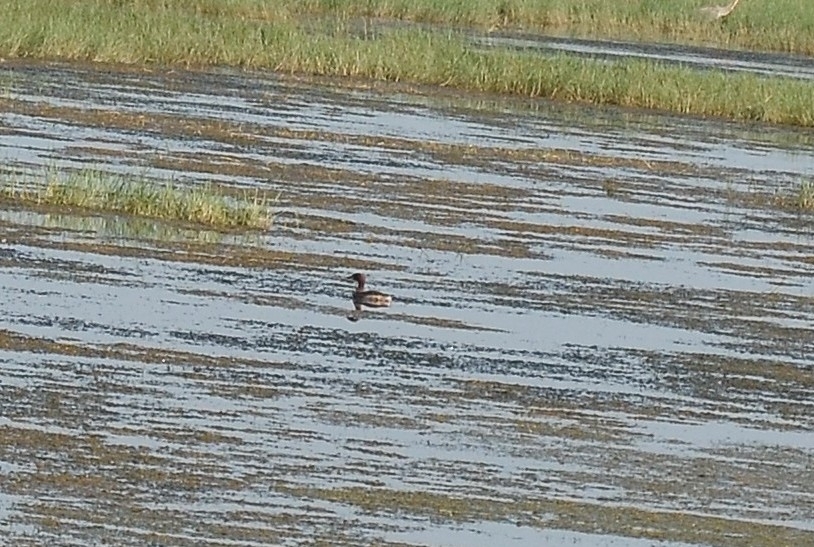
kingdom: Animalia
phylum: Chordata
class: Aves
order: Podicipediformes
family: Podicipedidae
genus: Tachybaptus
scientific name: Tachybaptus ruficollis
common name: Little grebe
